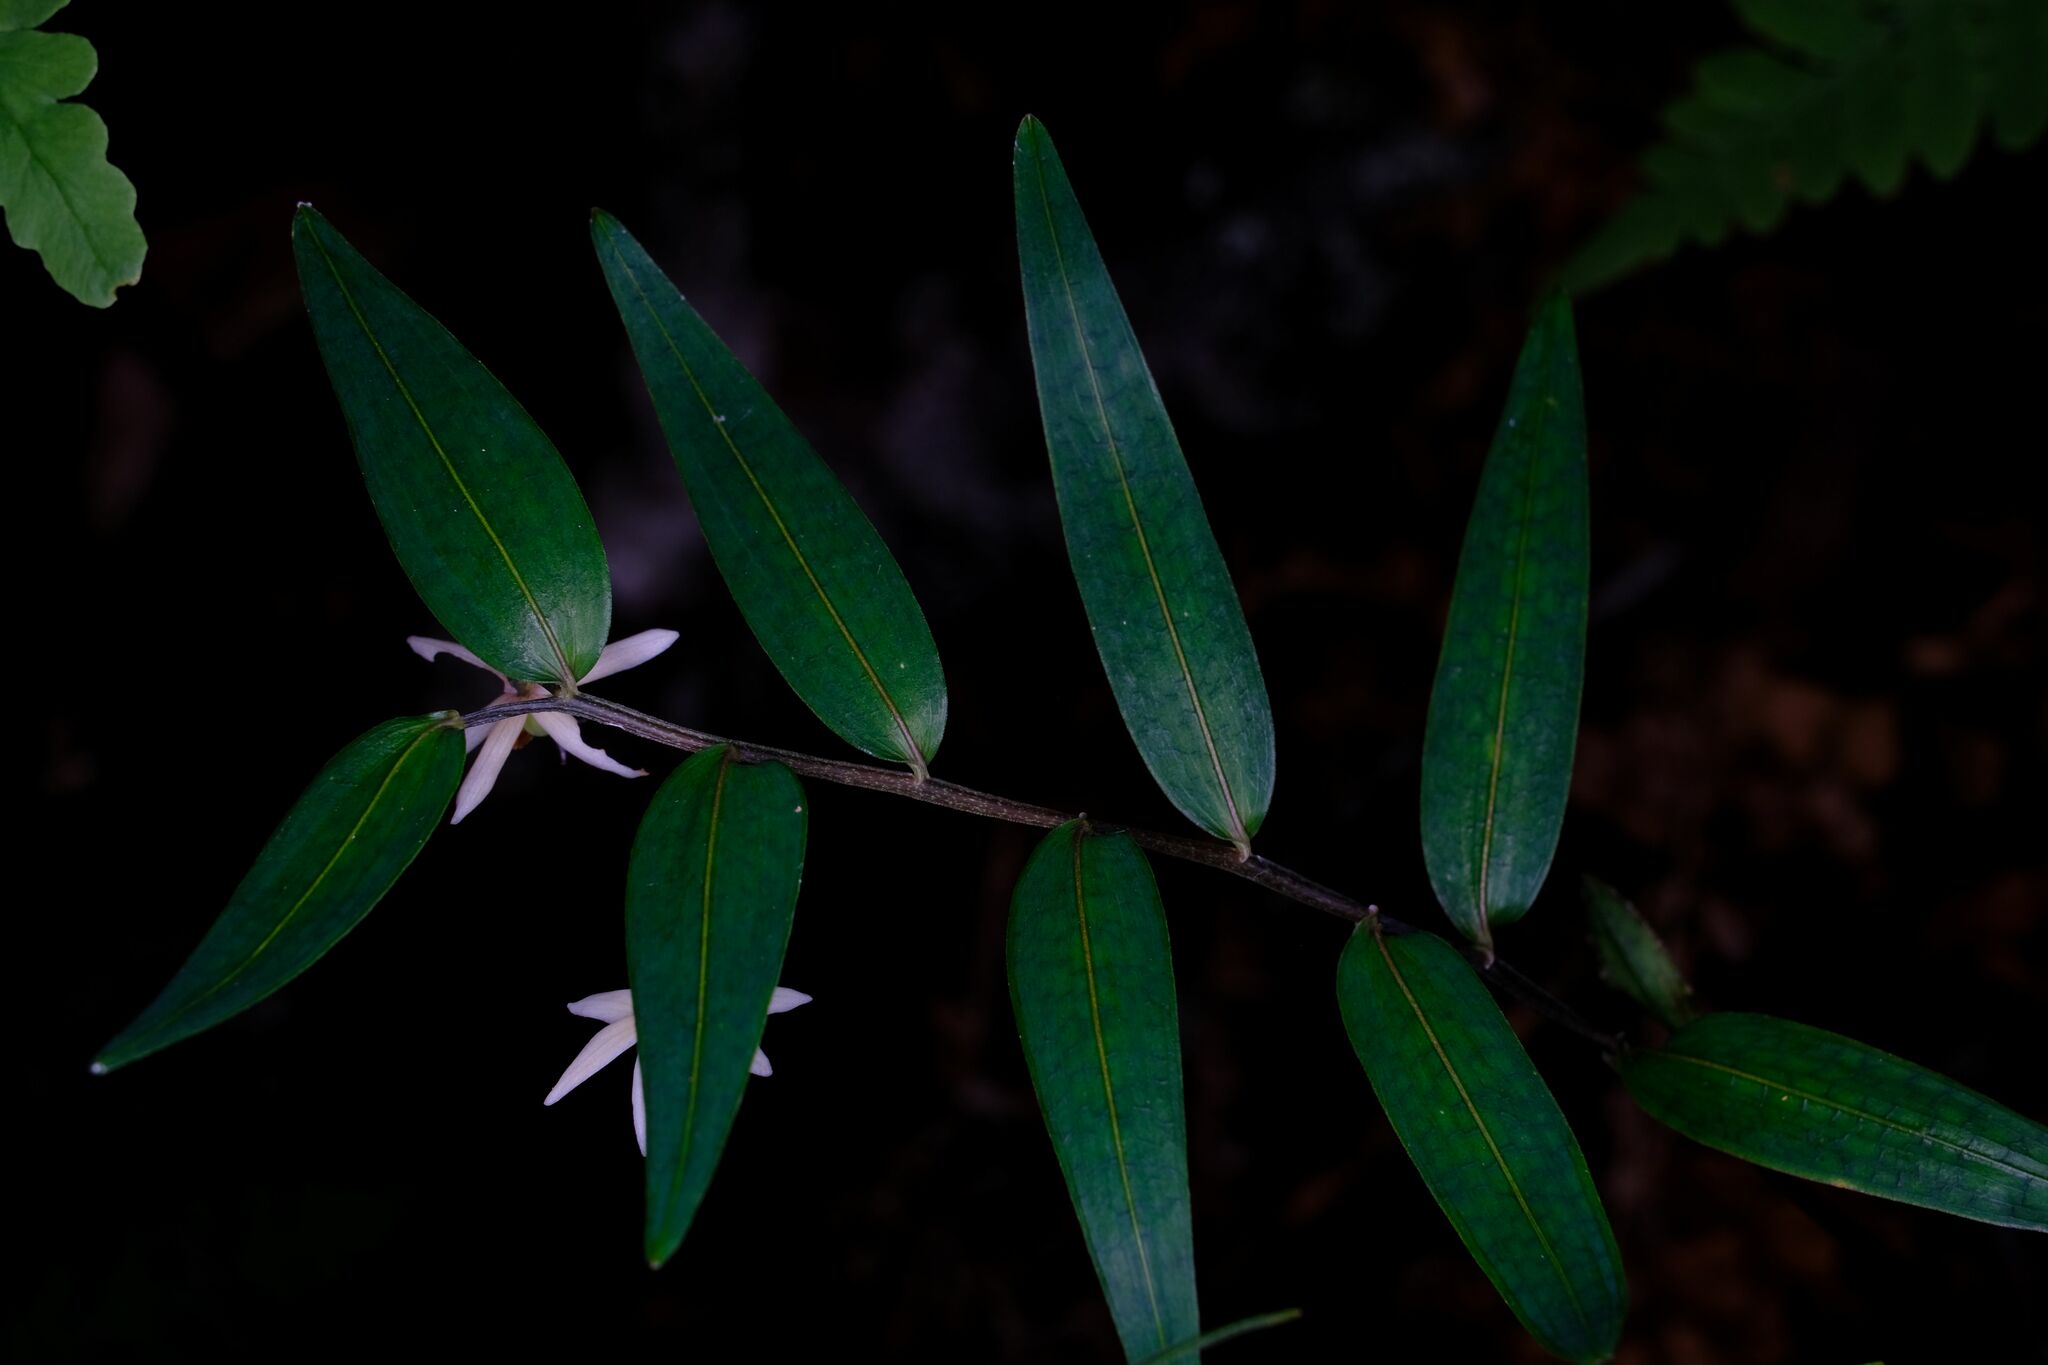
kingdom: Plantae
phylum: Tracheophyta
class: Liliopsida
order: Liliales
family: Alstroemeriaceae
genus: Drymophila
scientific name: Drymophila cyanocarpa
